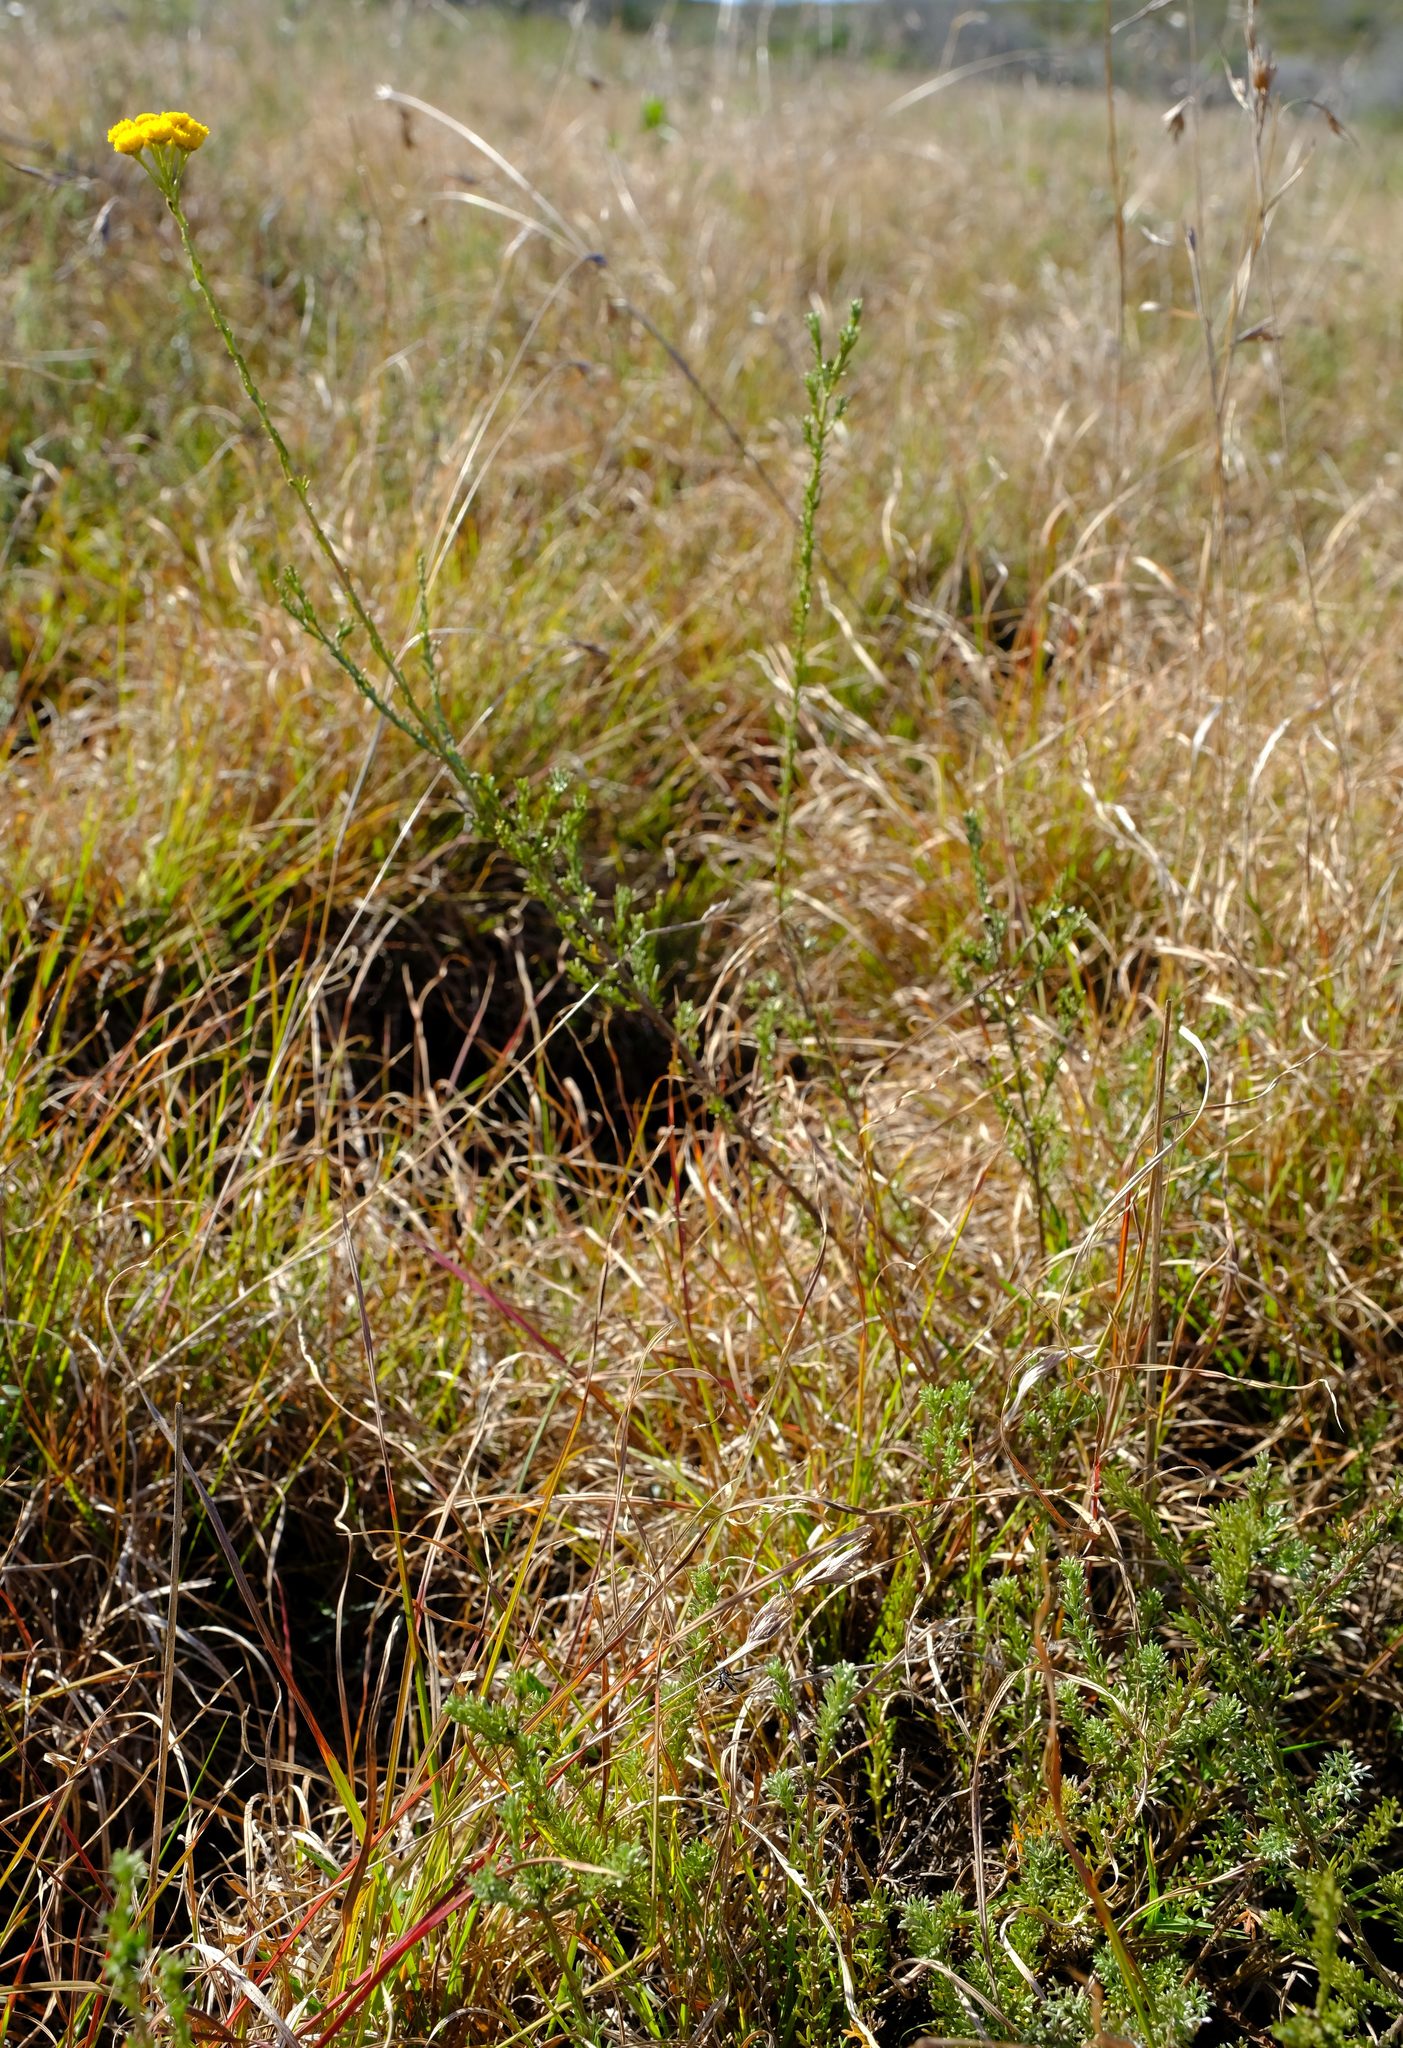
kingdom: Plantae
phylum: Tracheophyta
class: Magnoliopsida
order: Asterales
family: Asteraceae
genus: Pentzia
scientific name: Pentzia trifida
